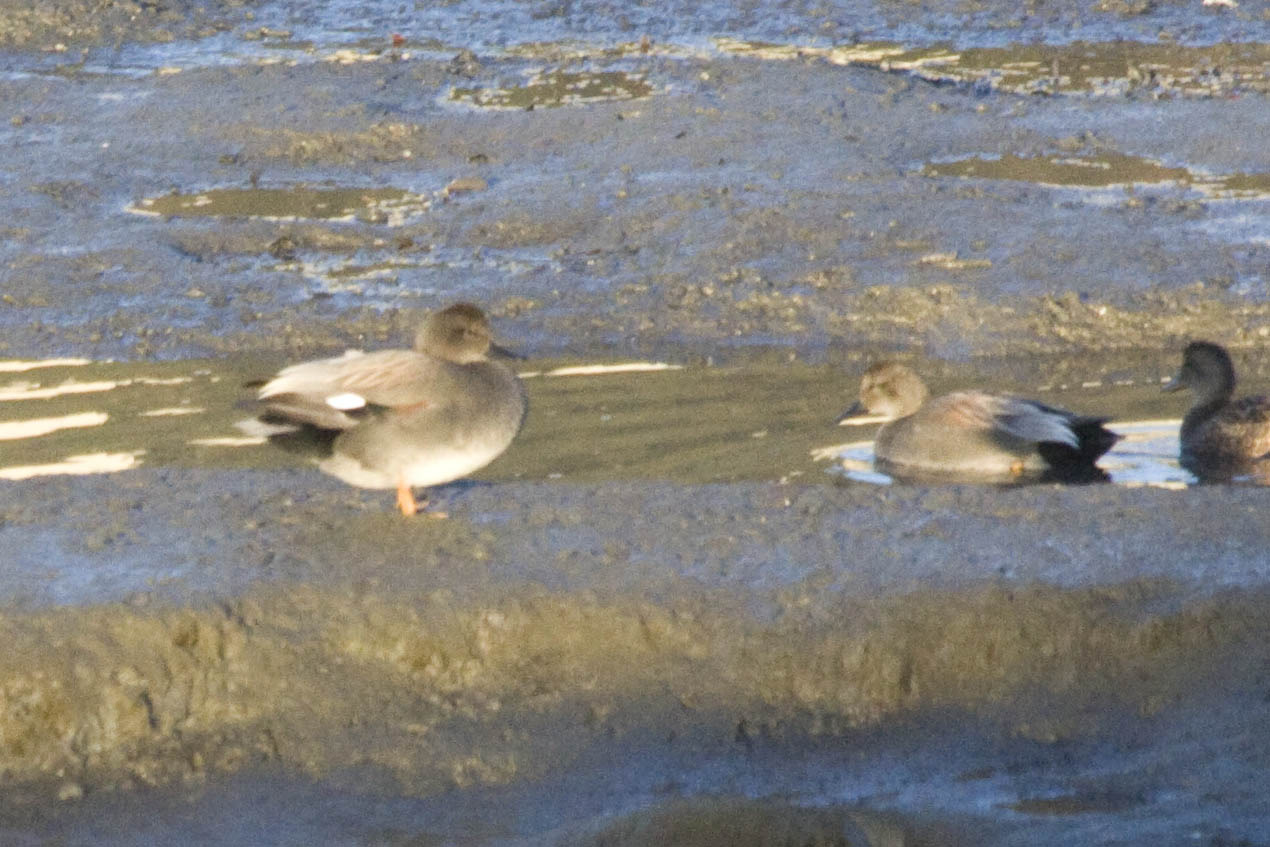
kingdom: Animalia
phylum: Chordata
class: Aves
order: Anseriformes
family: Anatidae
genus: Mareca
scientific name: Mareca strepera
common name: Gadwall
